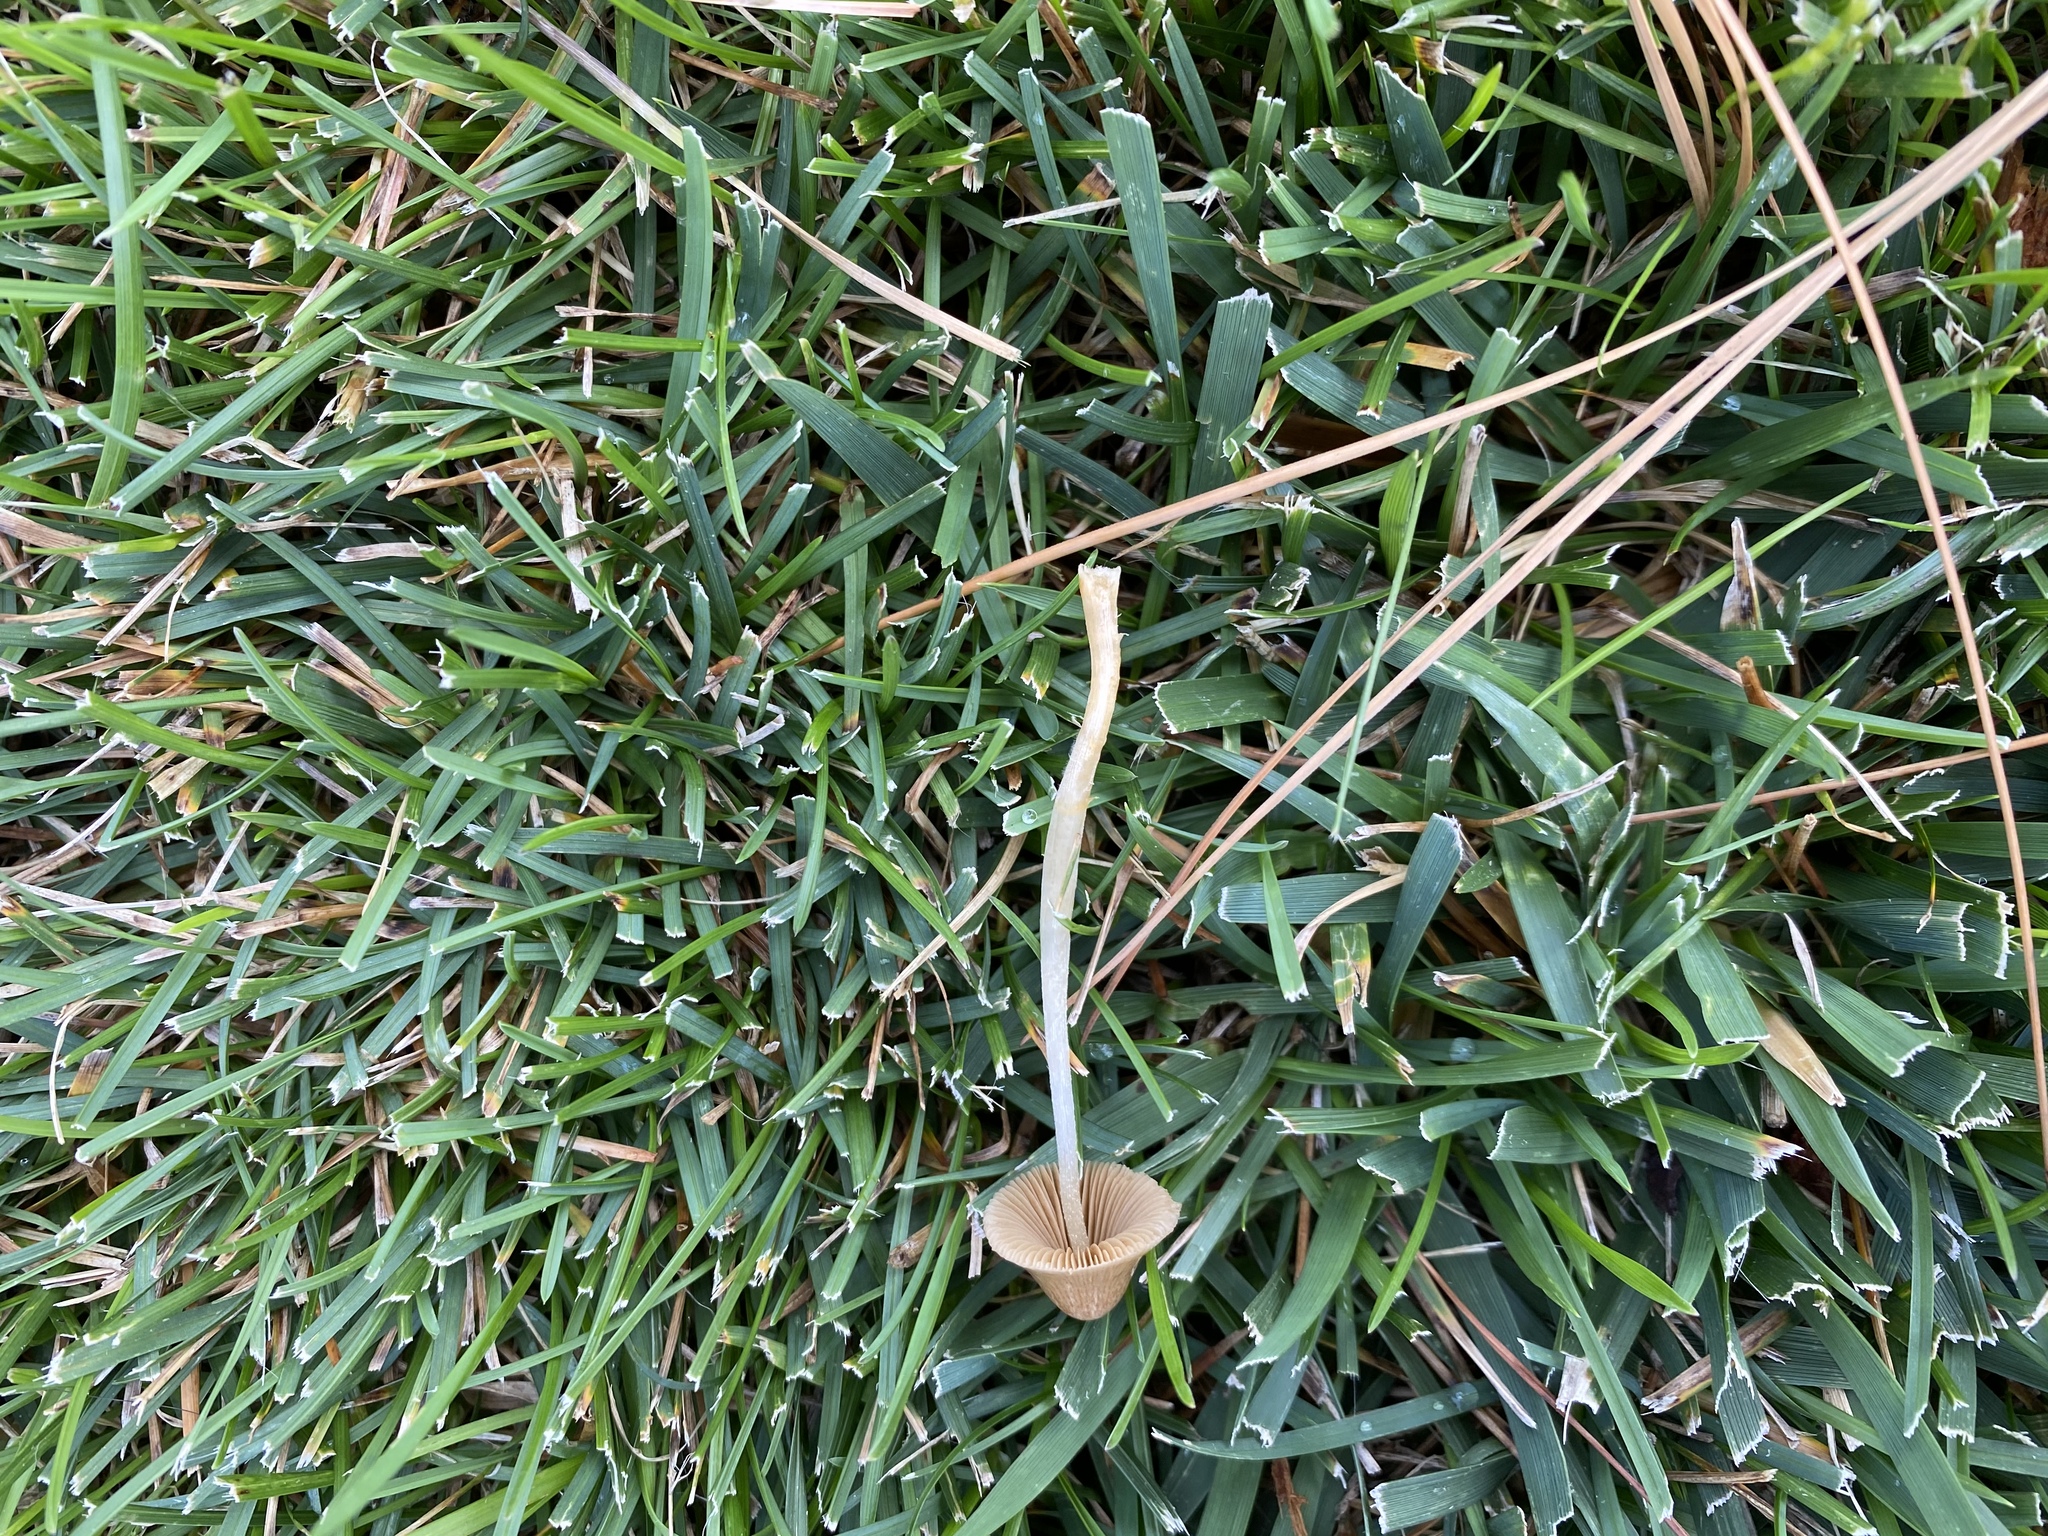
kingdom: Fungi
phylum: Basidiomycota
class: Agaricomycetes
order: Agaricales
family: Bolbitiaceae
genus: Panaeolina
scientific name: Panaeolina foenisecii
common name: Brown hay cap
